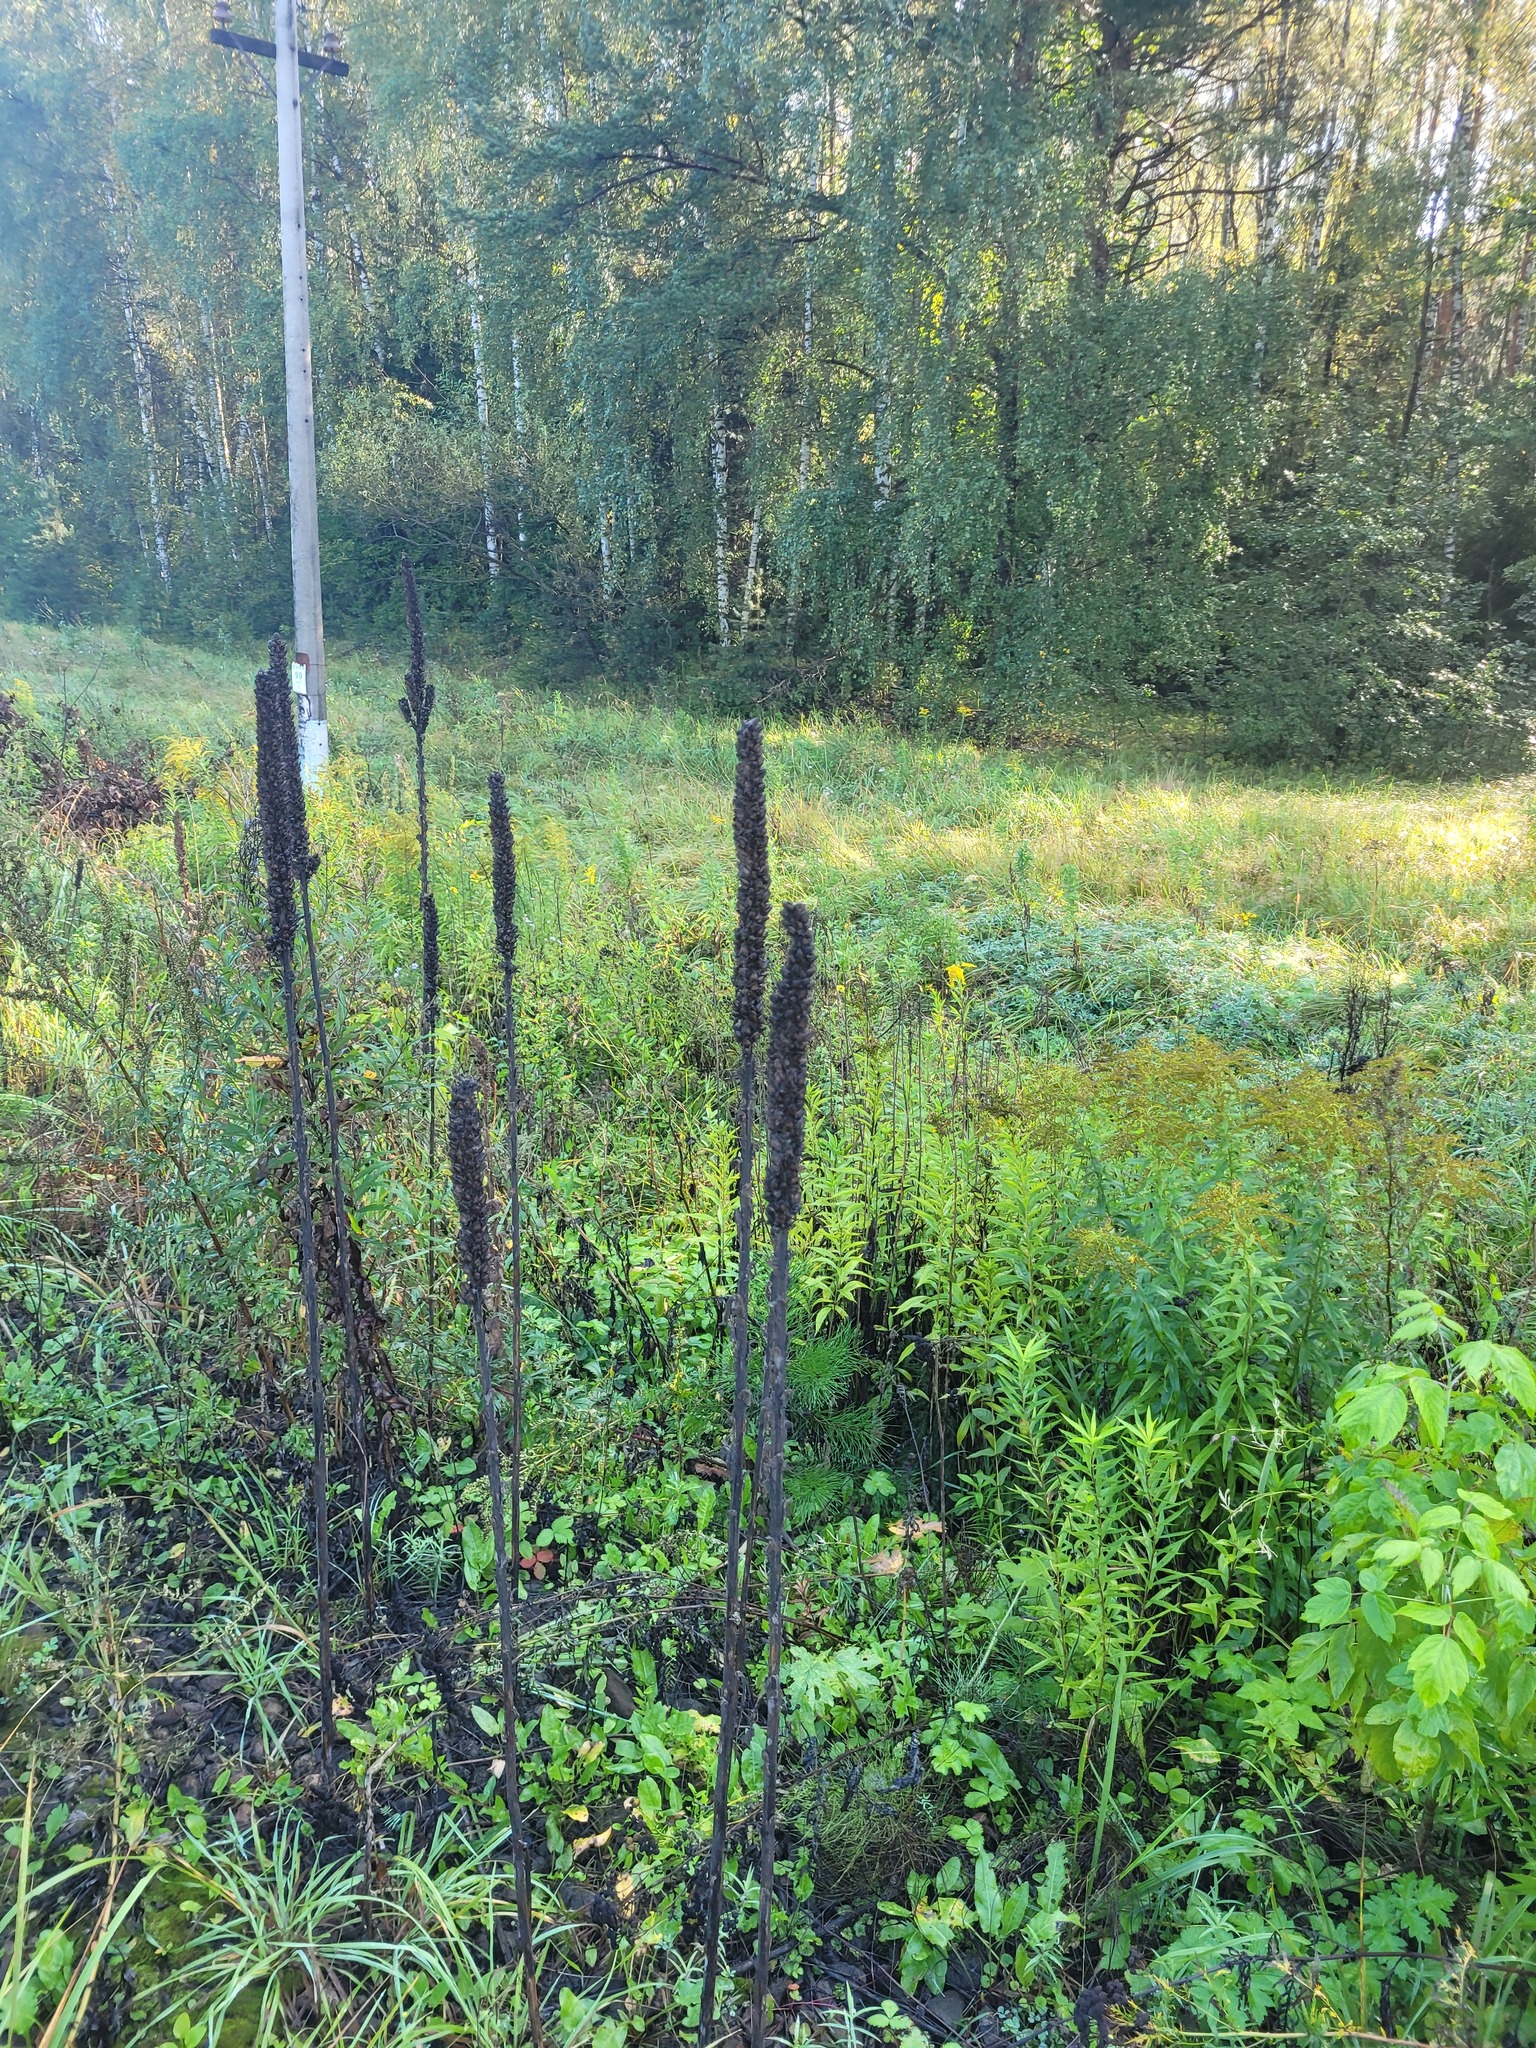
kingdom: Plantae
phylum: Tracheophyta
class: Magnoliopsida
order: Lamiales
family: Scrophulariaceae
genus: Verbascum
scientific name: Verbascum thapsus
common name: Common mullein
